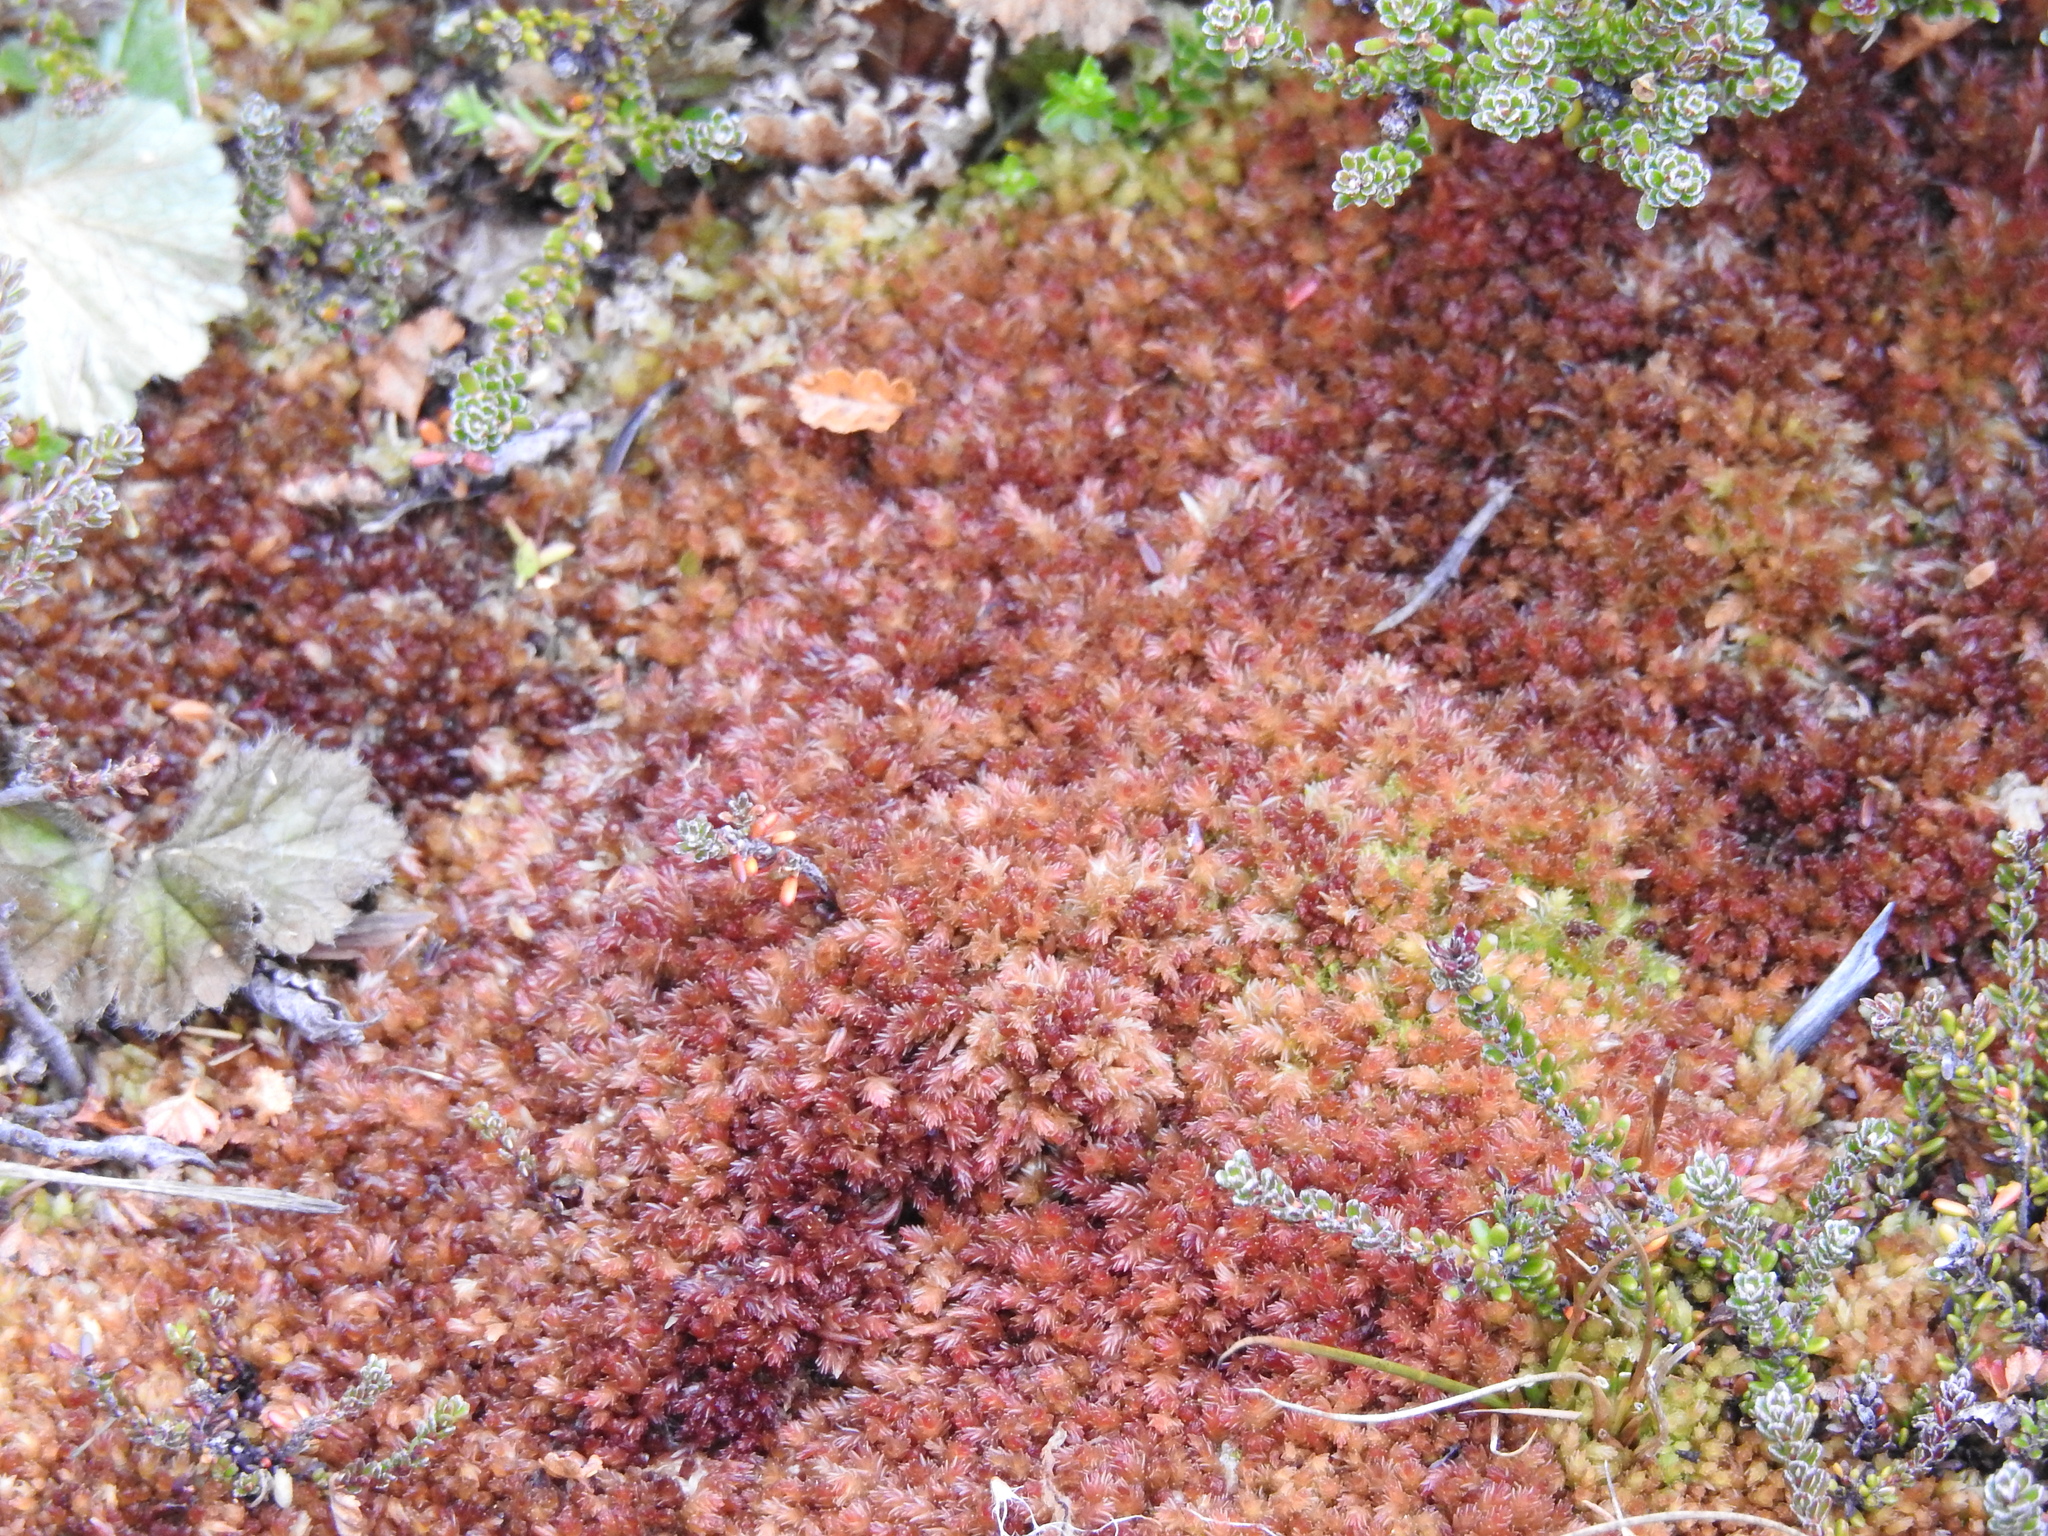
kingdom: Plantae
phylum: Bryophyta
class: Sphagnopsida
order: Sphagnales
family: Sphagnaceae
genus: Sphagnum
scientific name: Sphagnum magellanicum
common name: Magellan's peat moss
